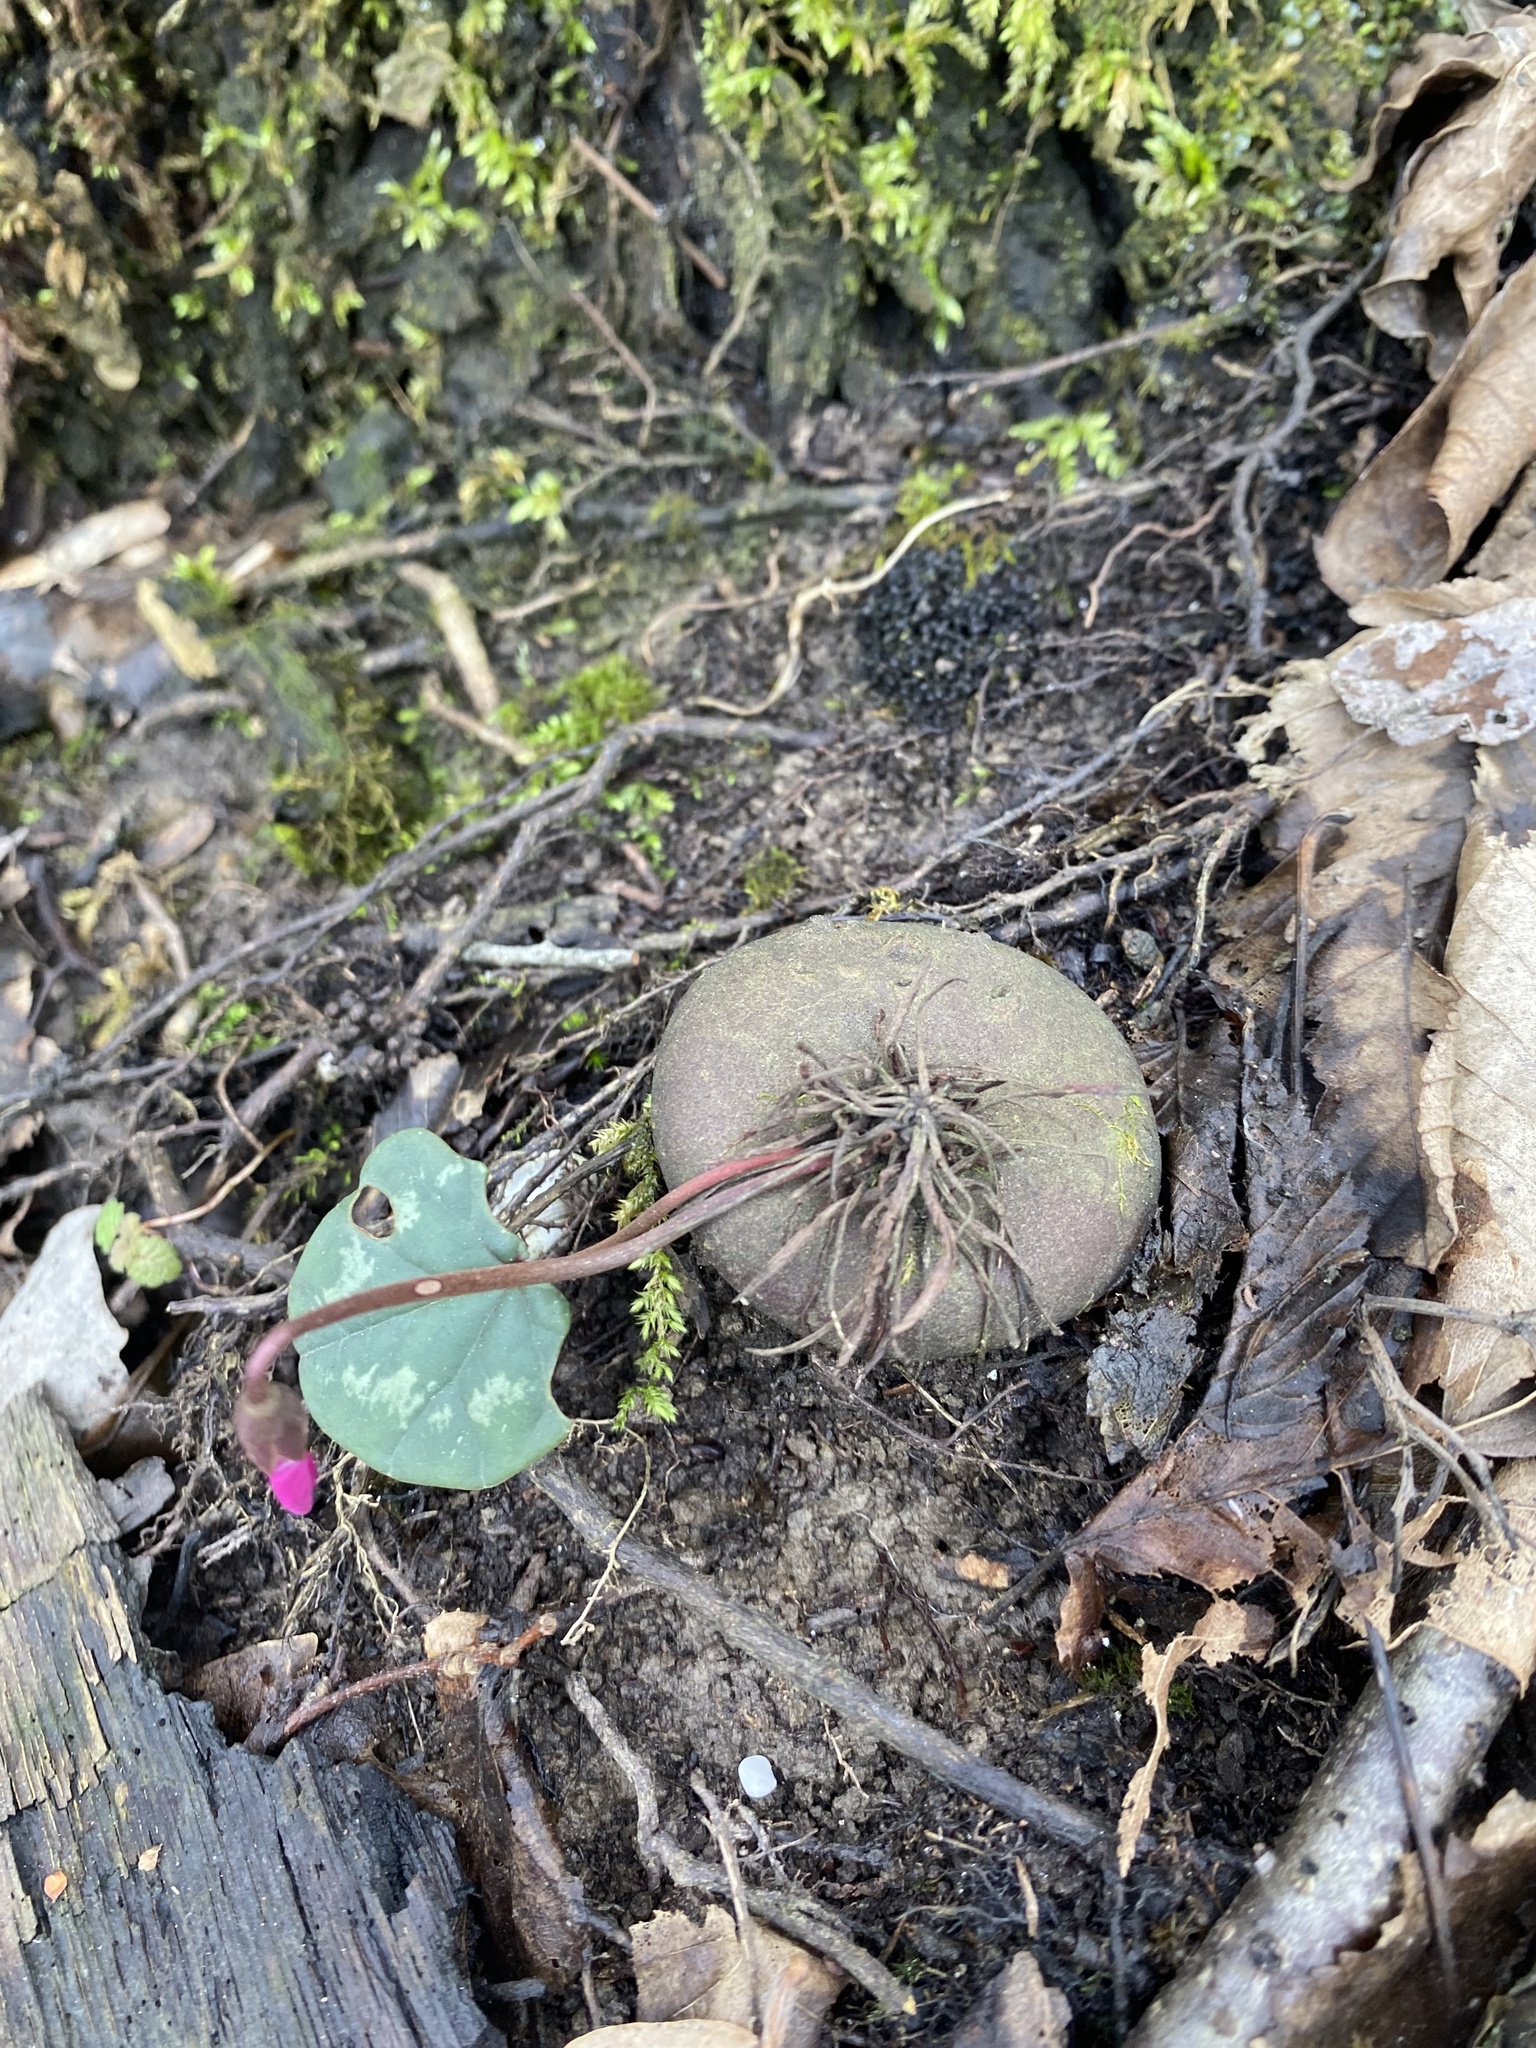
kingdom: Plantae
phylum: Tracheophyta
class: Magnoliopsida
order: Ericales
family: Primulaceae
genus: Cyclamen
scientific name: Cyclamen coum
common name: Eastern sowbread
